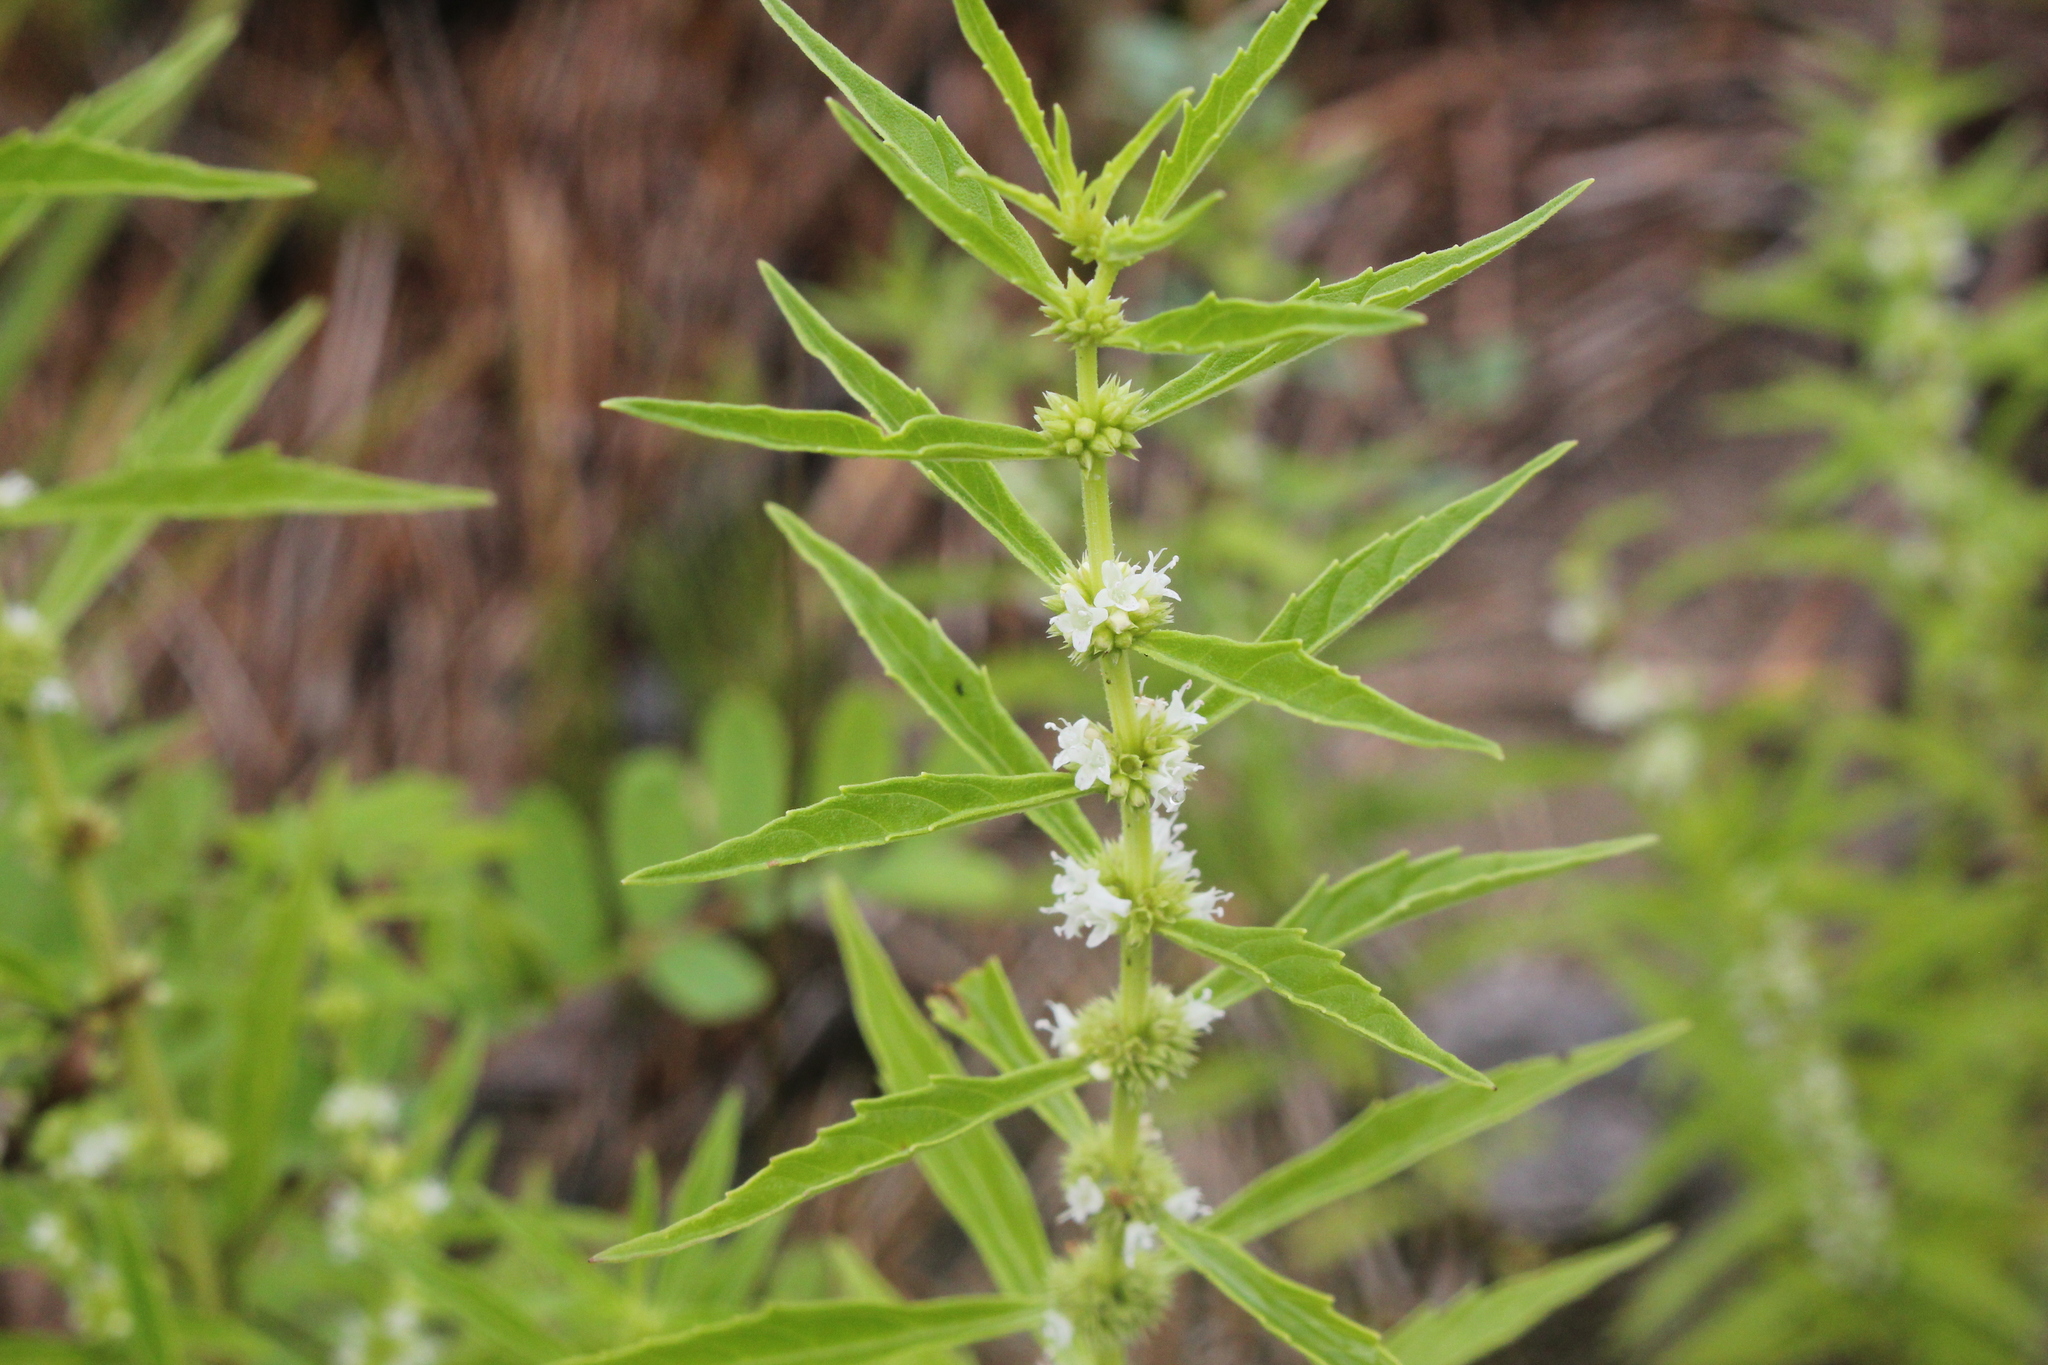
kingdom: Plantae
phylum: Tracheophyta
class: Magnoliopsida
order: Lamiales
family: Lamiaceae
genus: Lycopus
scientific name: Lycopus americanus
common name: American bugleweed
